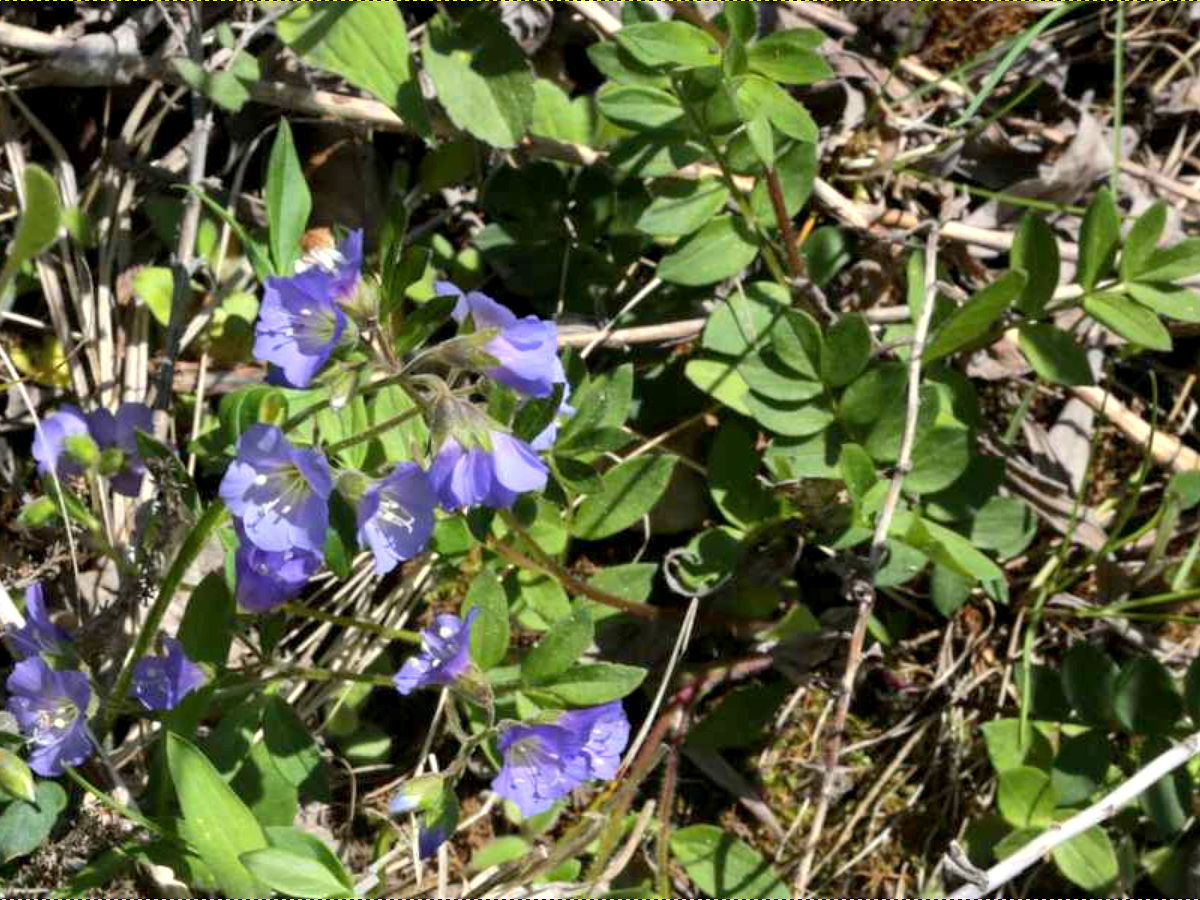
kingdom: Plantae
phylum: Tracheophyta
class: Magnoliopsida
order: Ericales
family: Polemoniaceae
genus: Polemonium
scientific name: Polemonium reptans
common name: Creeping jacob's-ladder
